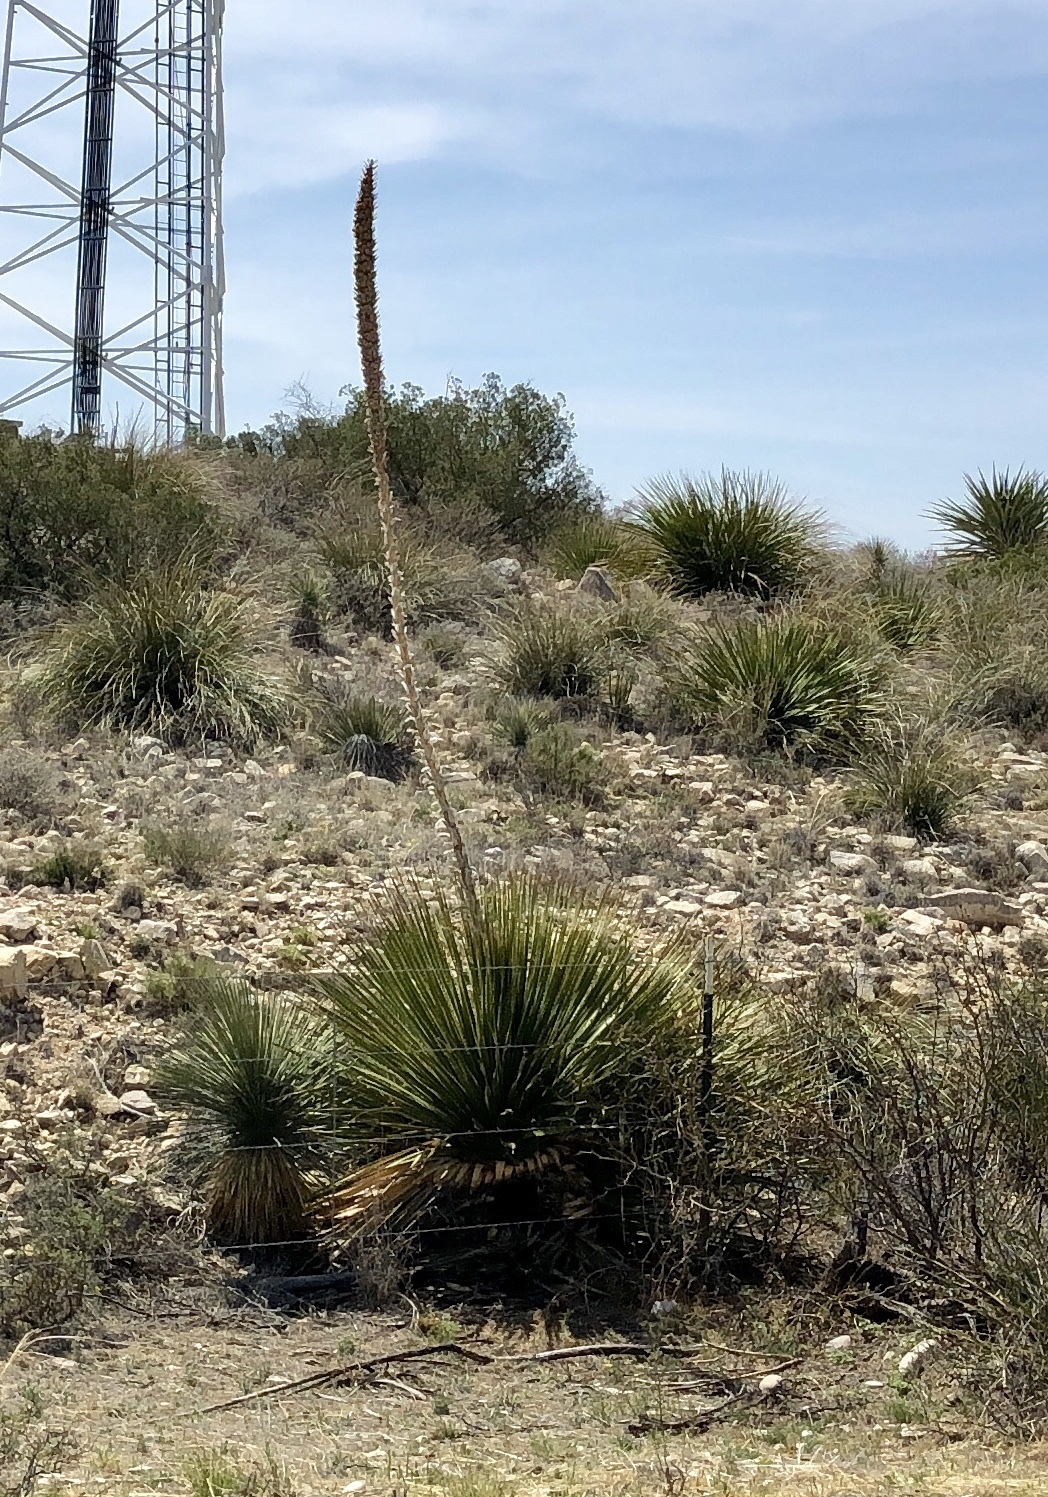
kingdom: Plantae
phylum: Tracheophyta
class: Liliopsida
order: Asparagales
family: Asparagaceae
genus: Dasylirion
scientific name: Dasylirion leiophyllum
